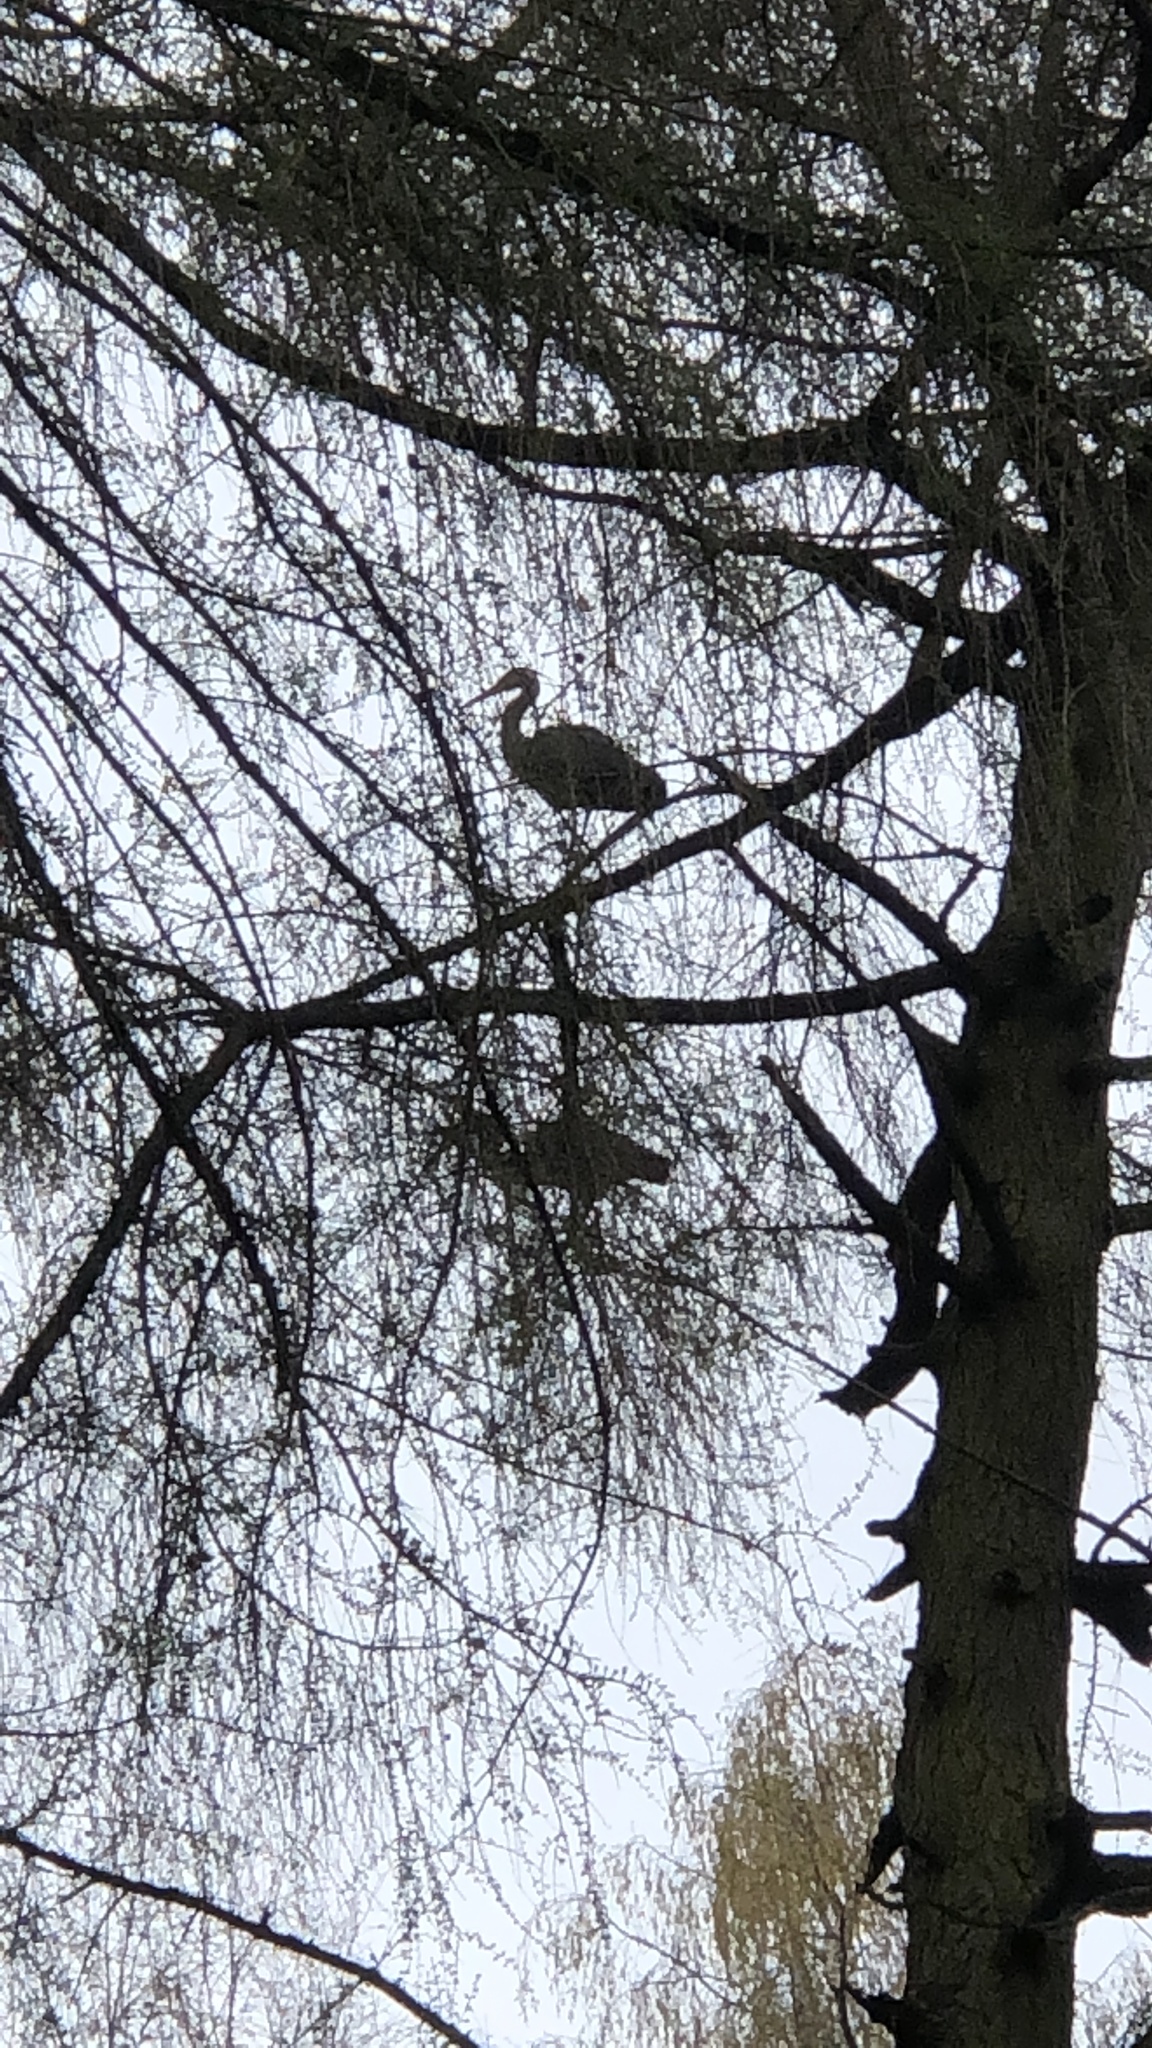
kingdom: Animalia
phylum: Chordata
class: Aves
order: Pelecaniformes
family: Ardeidae
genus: Ardea
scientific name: Ardea cinerea
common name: Grey heron
